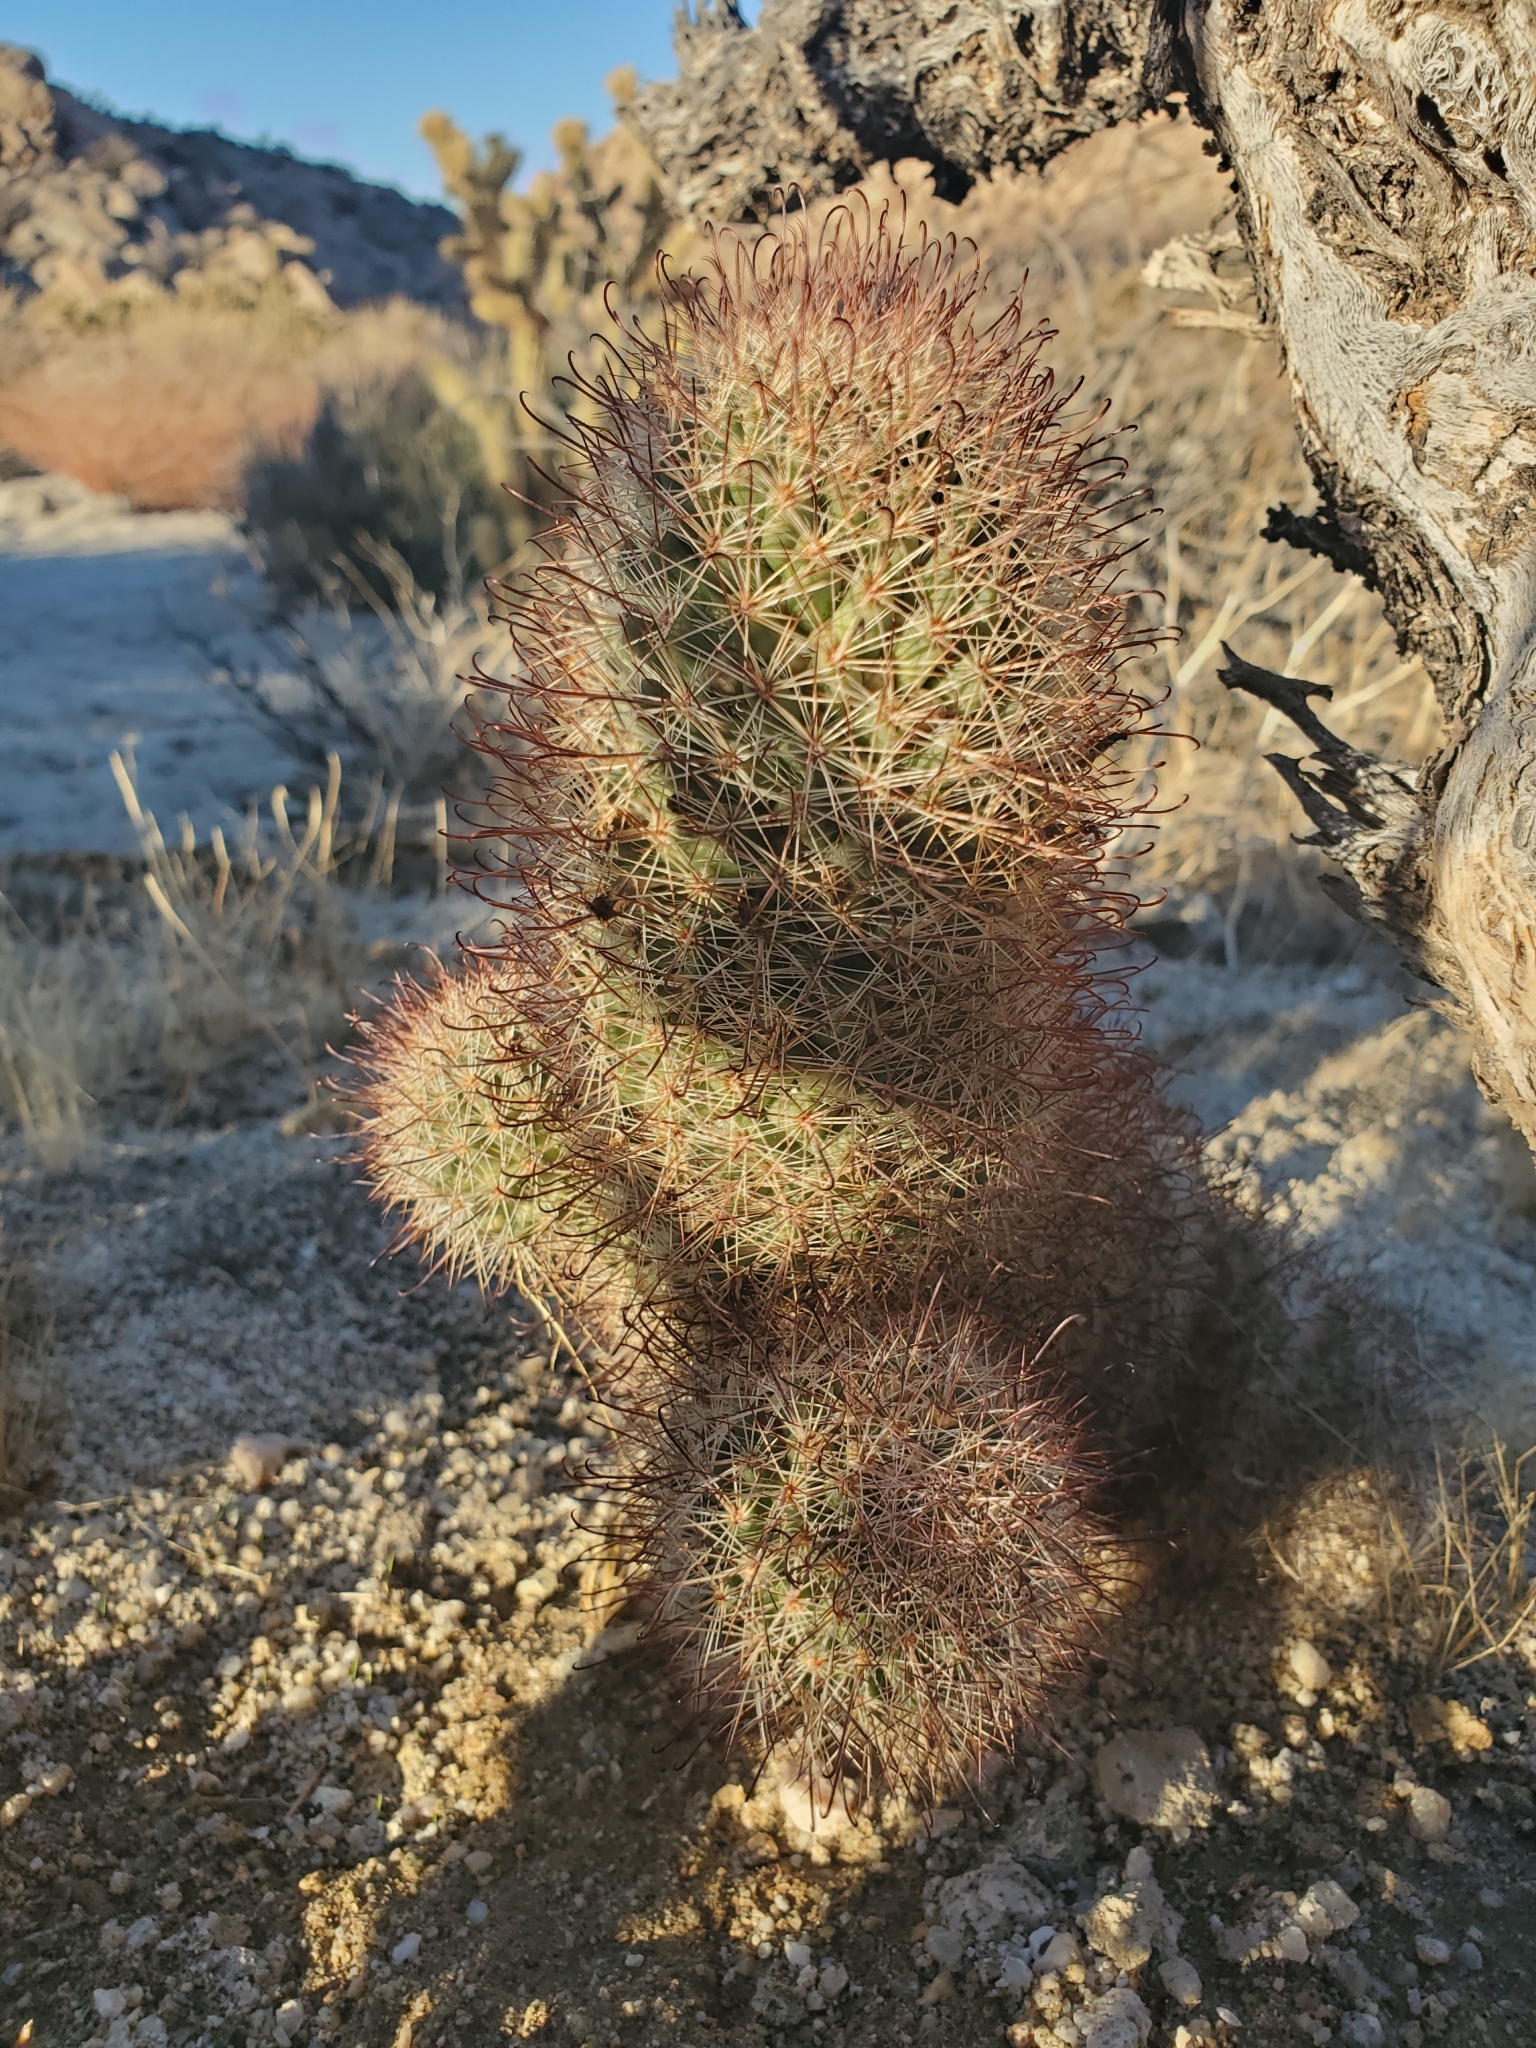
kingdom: Plantae
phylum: Tracheophyta
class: Magnoliopsida
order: Caryophyllales
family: Cactaceae
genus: Cochemiea
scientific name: Cochemiea dioica
